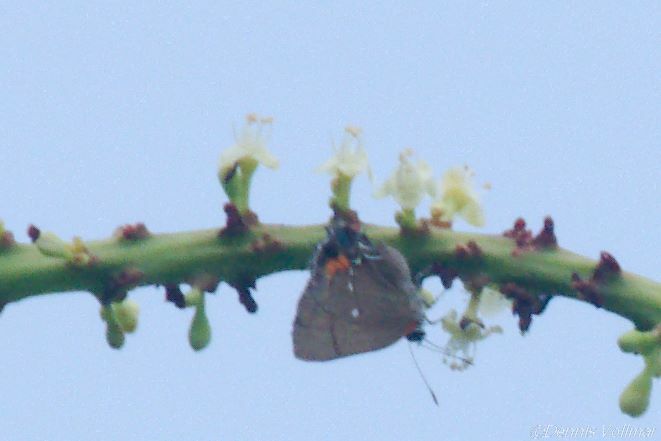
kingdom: Animalia
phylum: Arthropoda
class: Insecta
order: Lepidoptera
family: Lycaenidae
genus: Thecla
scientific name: Thecla angelia
